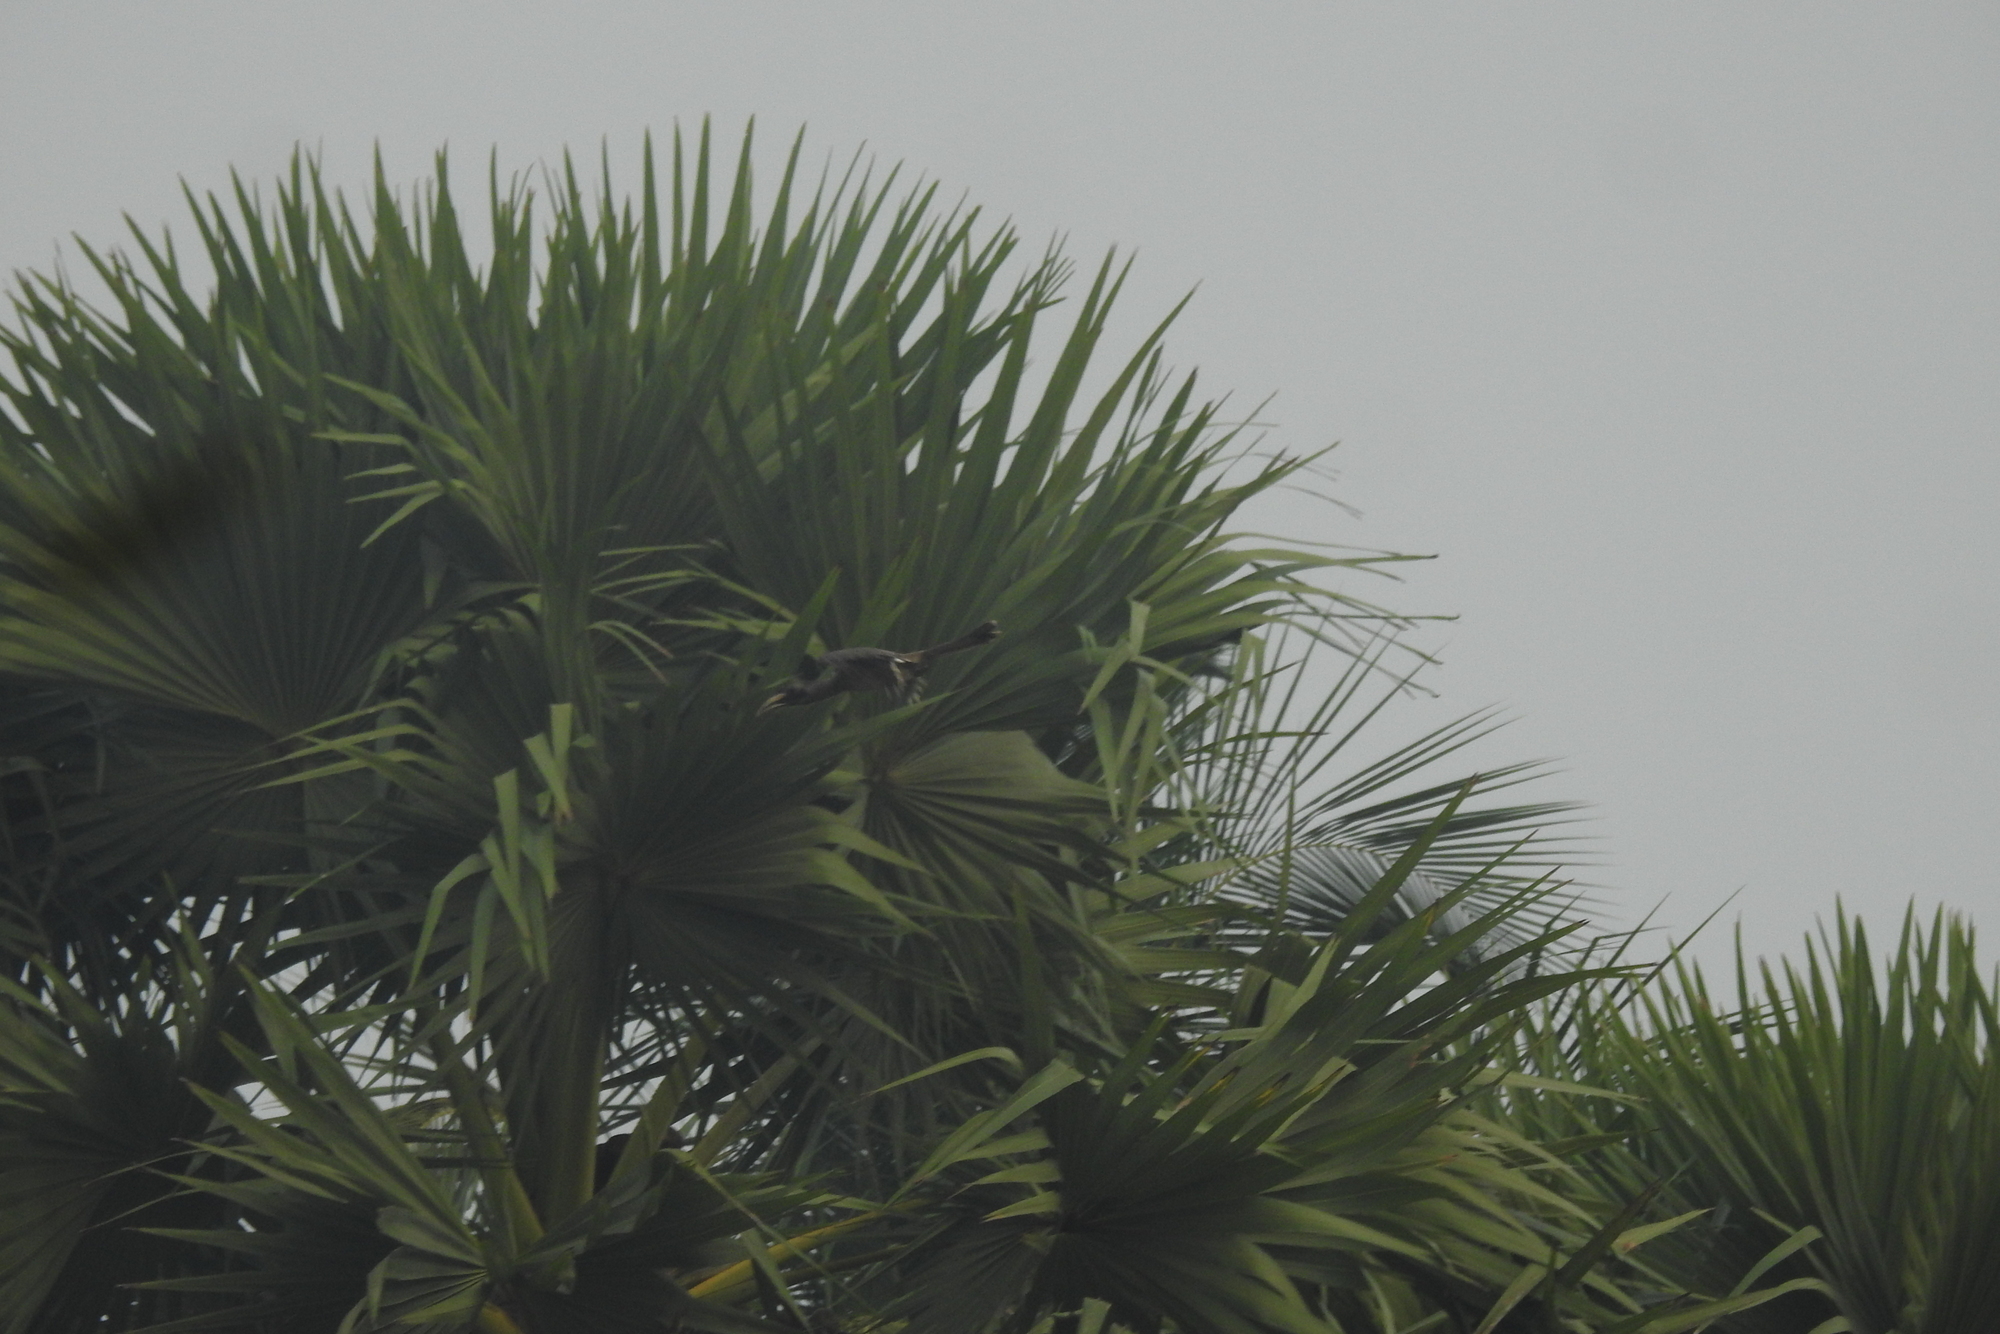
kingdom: Animalia
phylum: Chordata
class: Aves
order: Bucerotiformes
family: Bucerotidae
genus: Ocyceros
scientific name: Ocyceros birostris
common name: Indian grey hornbill
